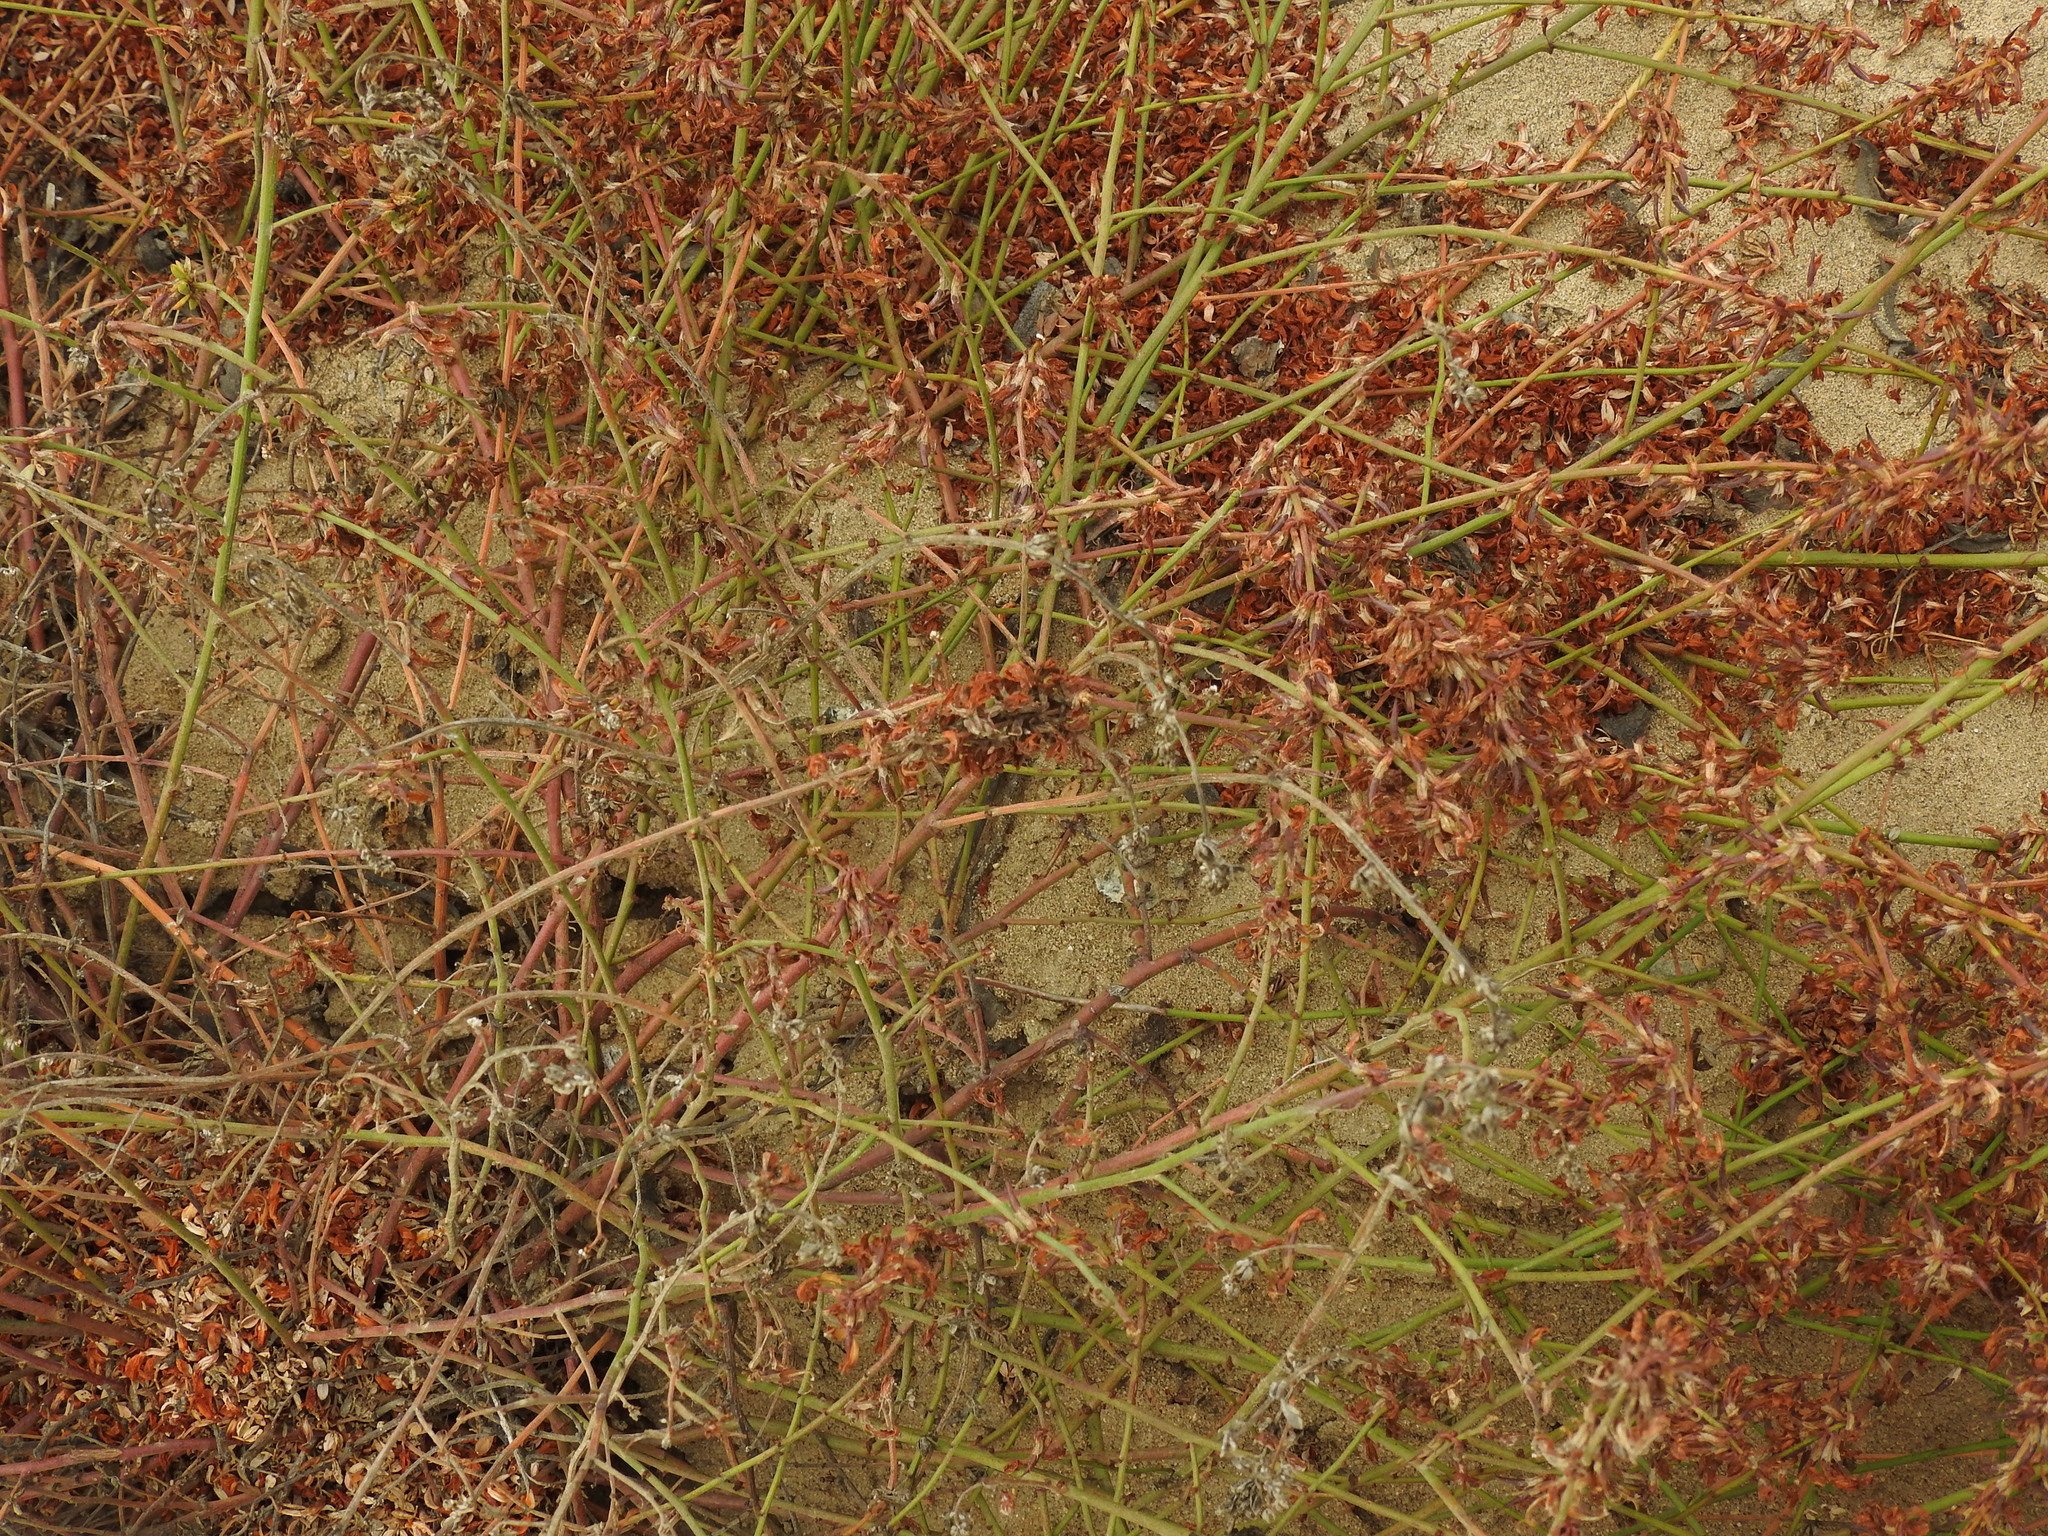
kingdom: Plantae
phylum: Tracheophyta
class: Magnoliopsida
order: Fabales
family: Fabaceae
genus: Acmispon
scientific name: Acmispon glaber
